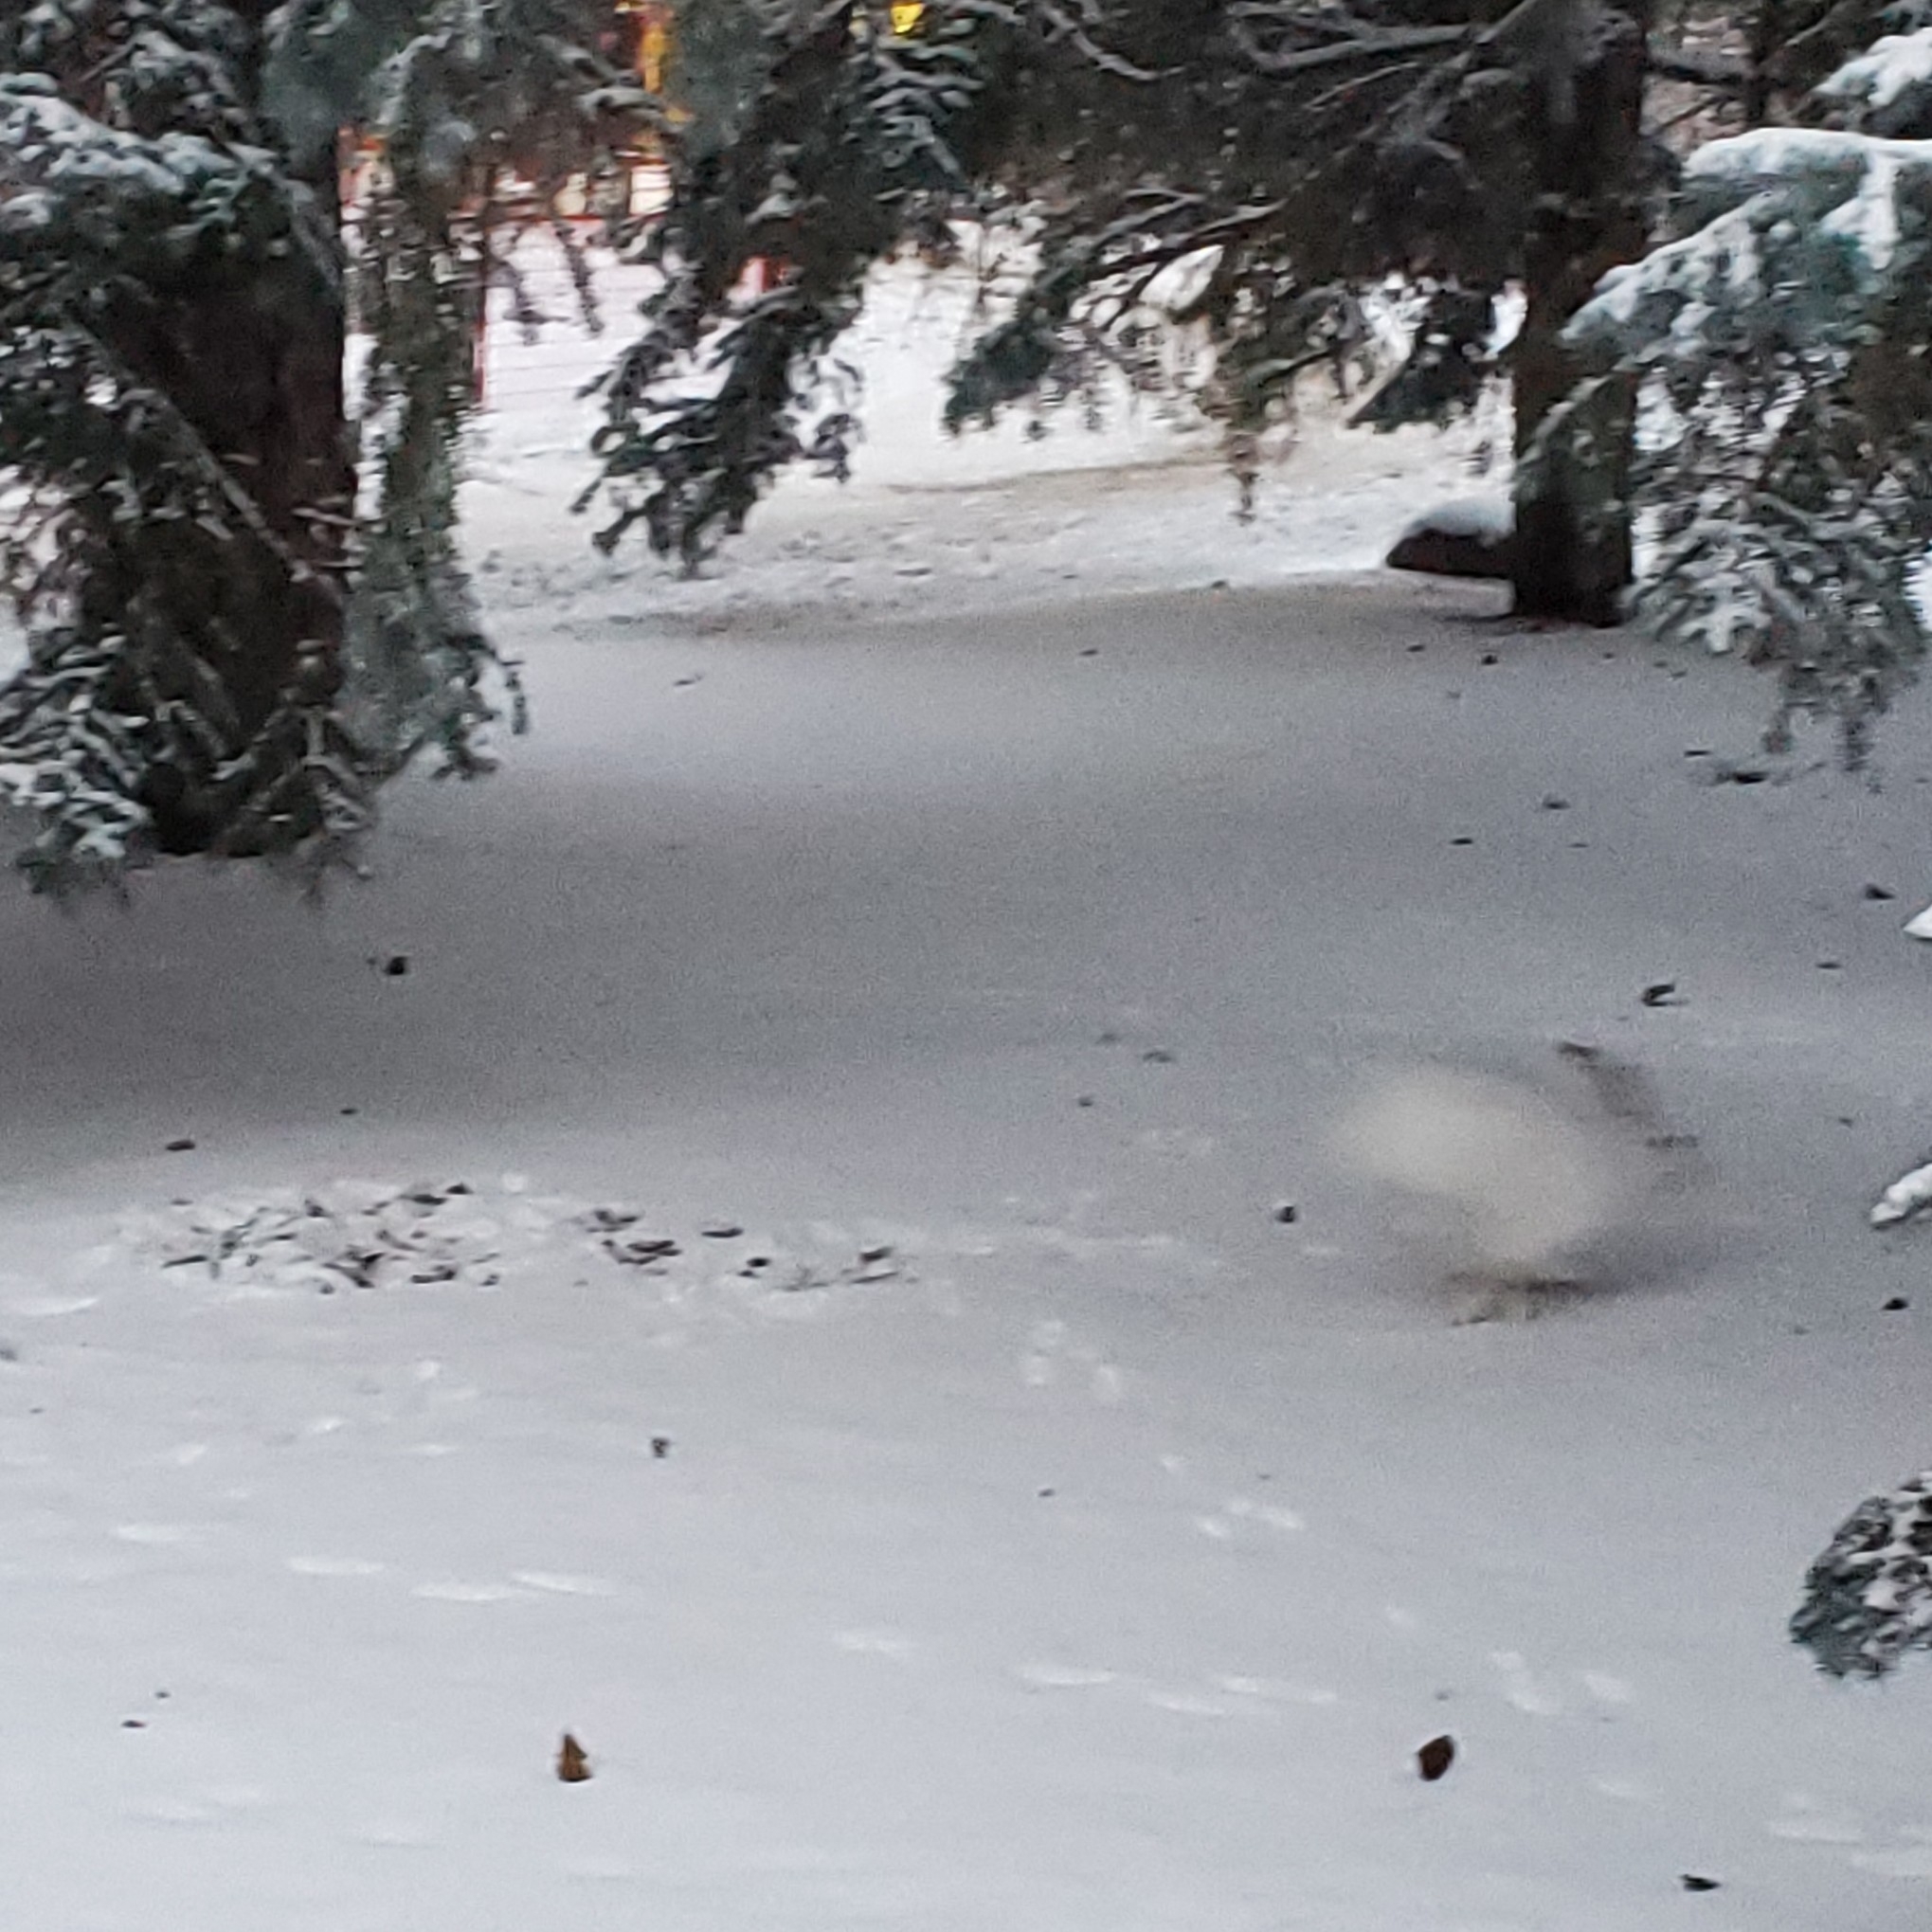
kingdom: Animalia
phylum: Chordata
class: Mammalia
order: Lagomorpha
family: Leporidae
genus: Lepus
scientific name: Lepus townsendii
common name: White-tailed jackrabbit
